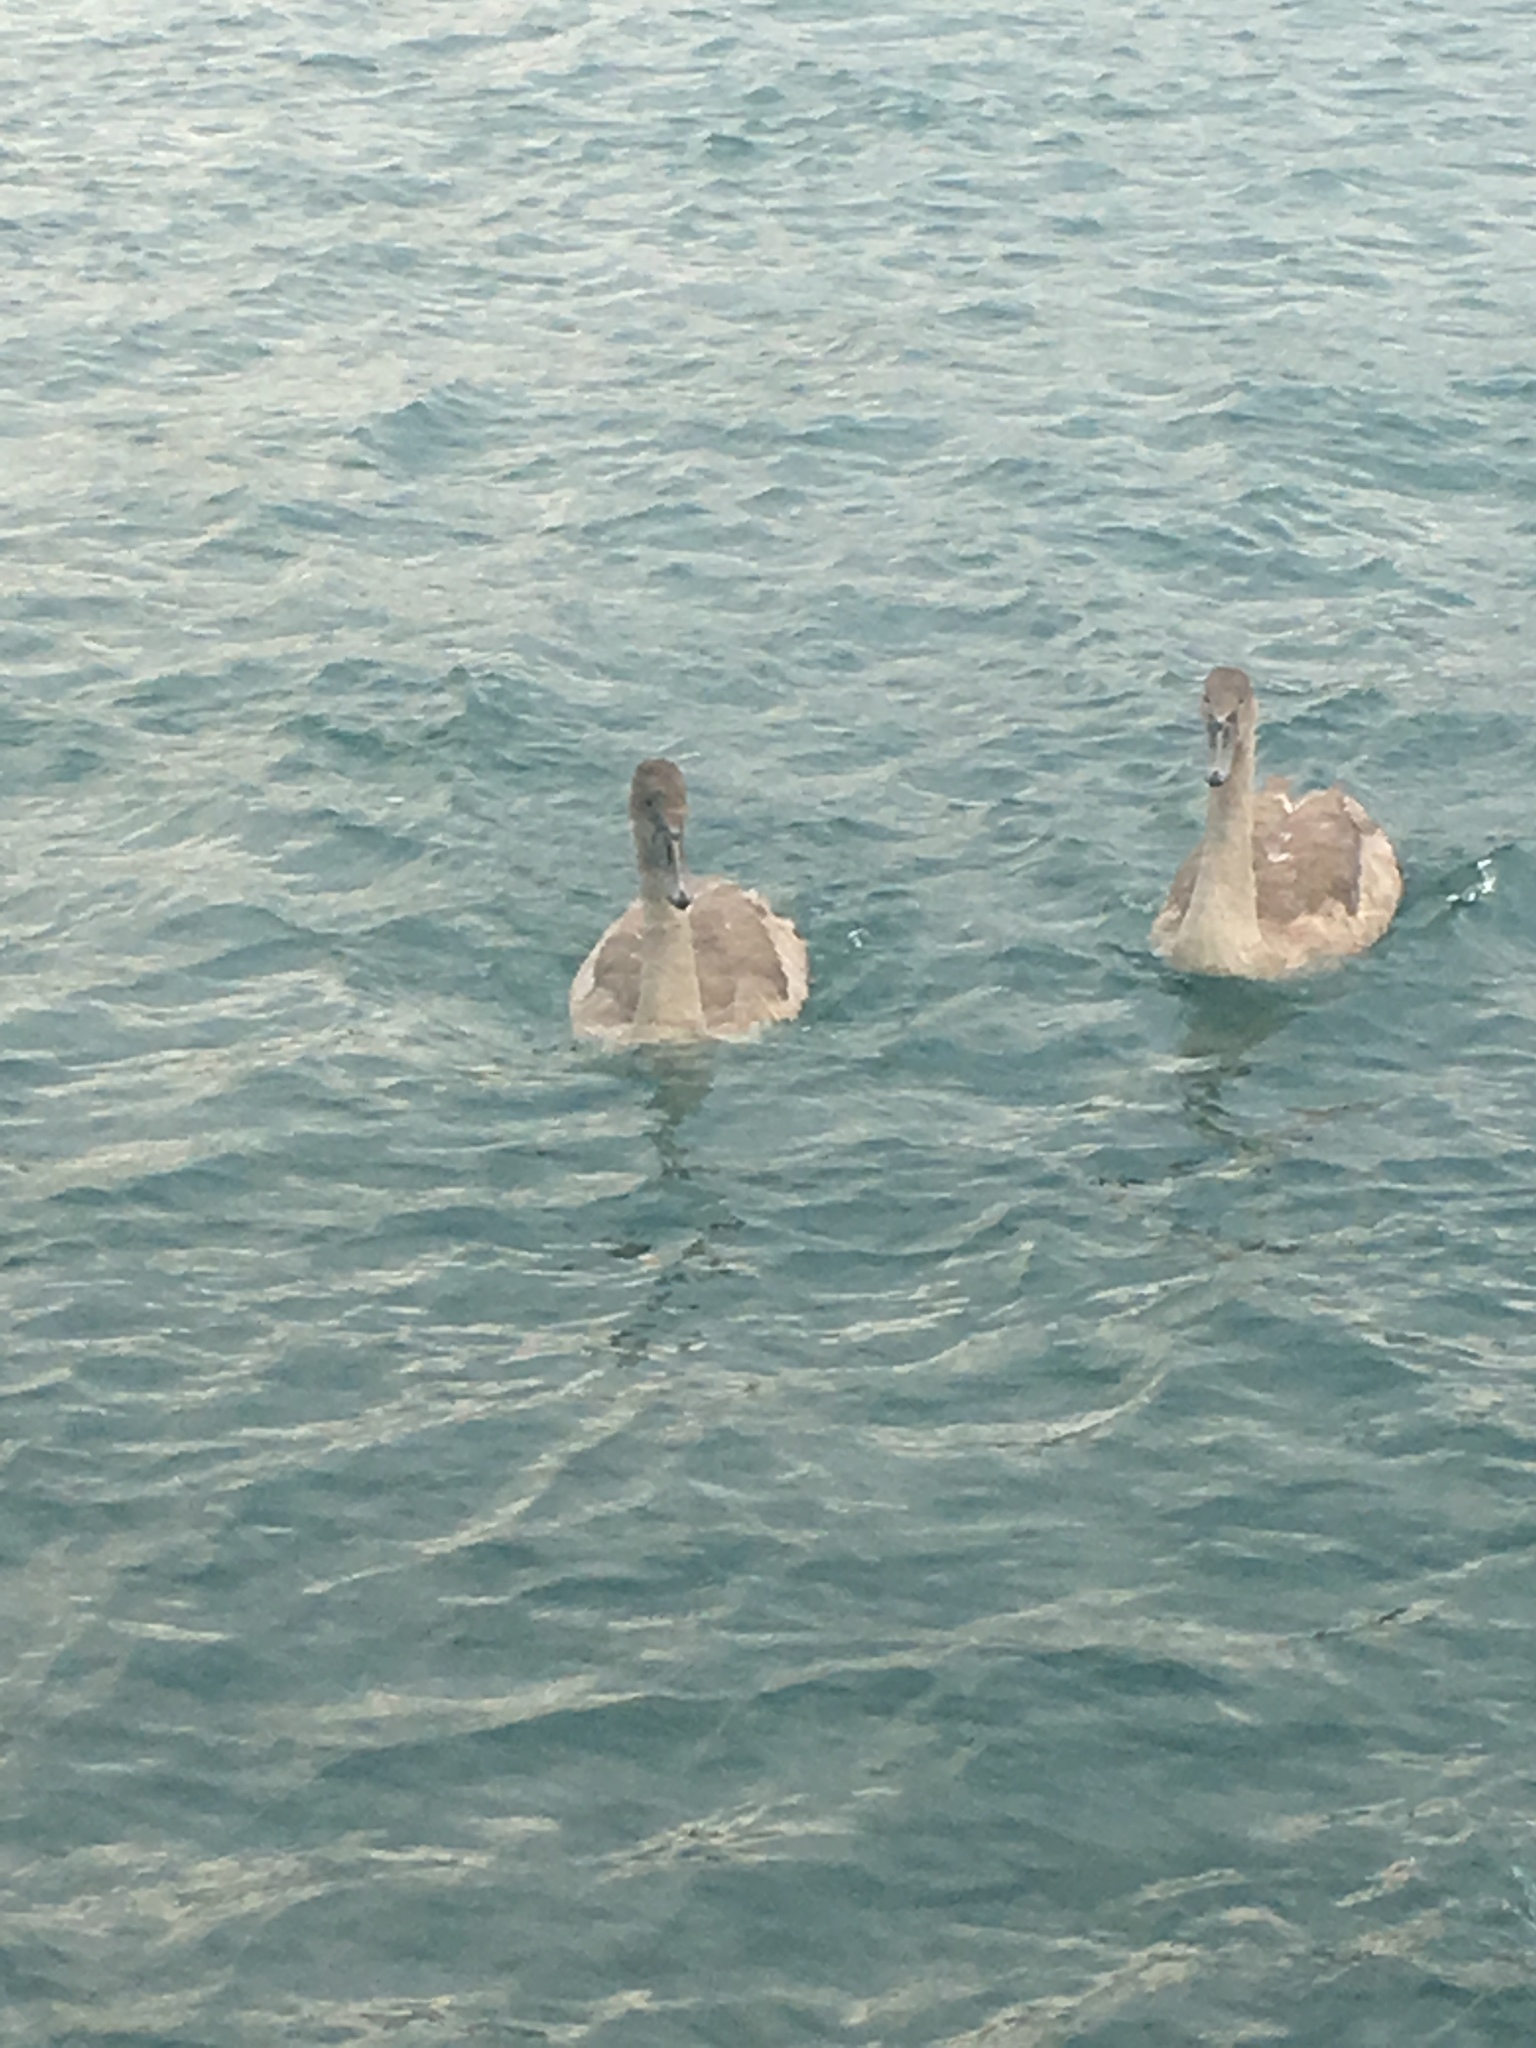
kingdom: Animalia
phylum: Chordata
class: Aves
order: Anseriformes
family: Anatidae
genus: Cygnus
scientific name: Cygnus olor
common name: Mute swan
